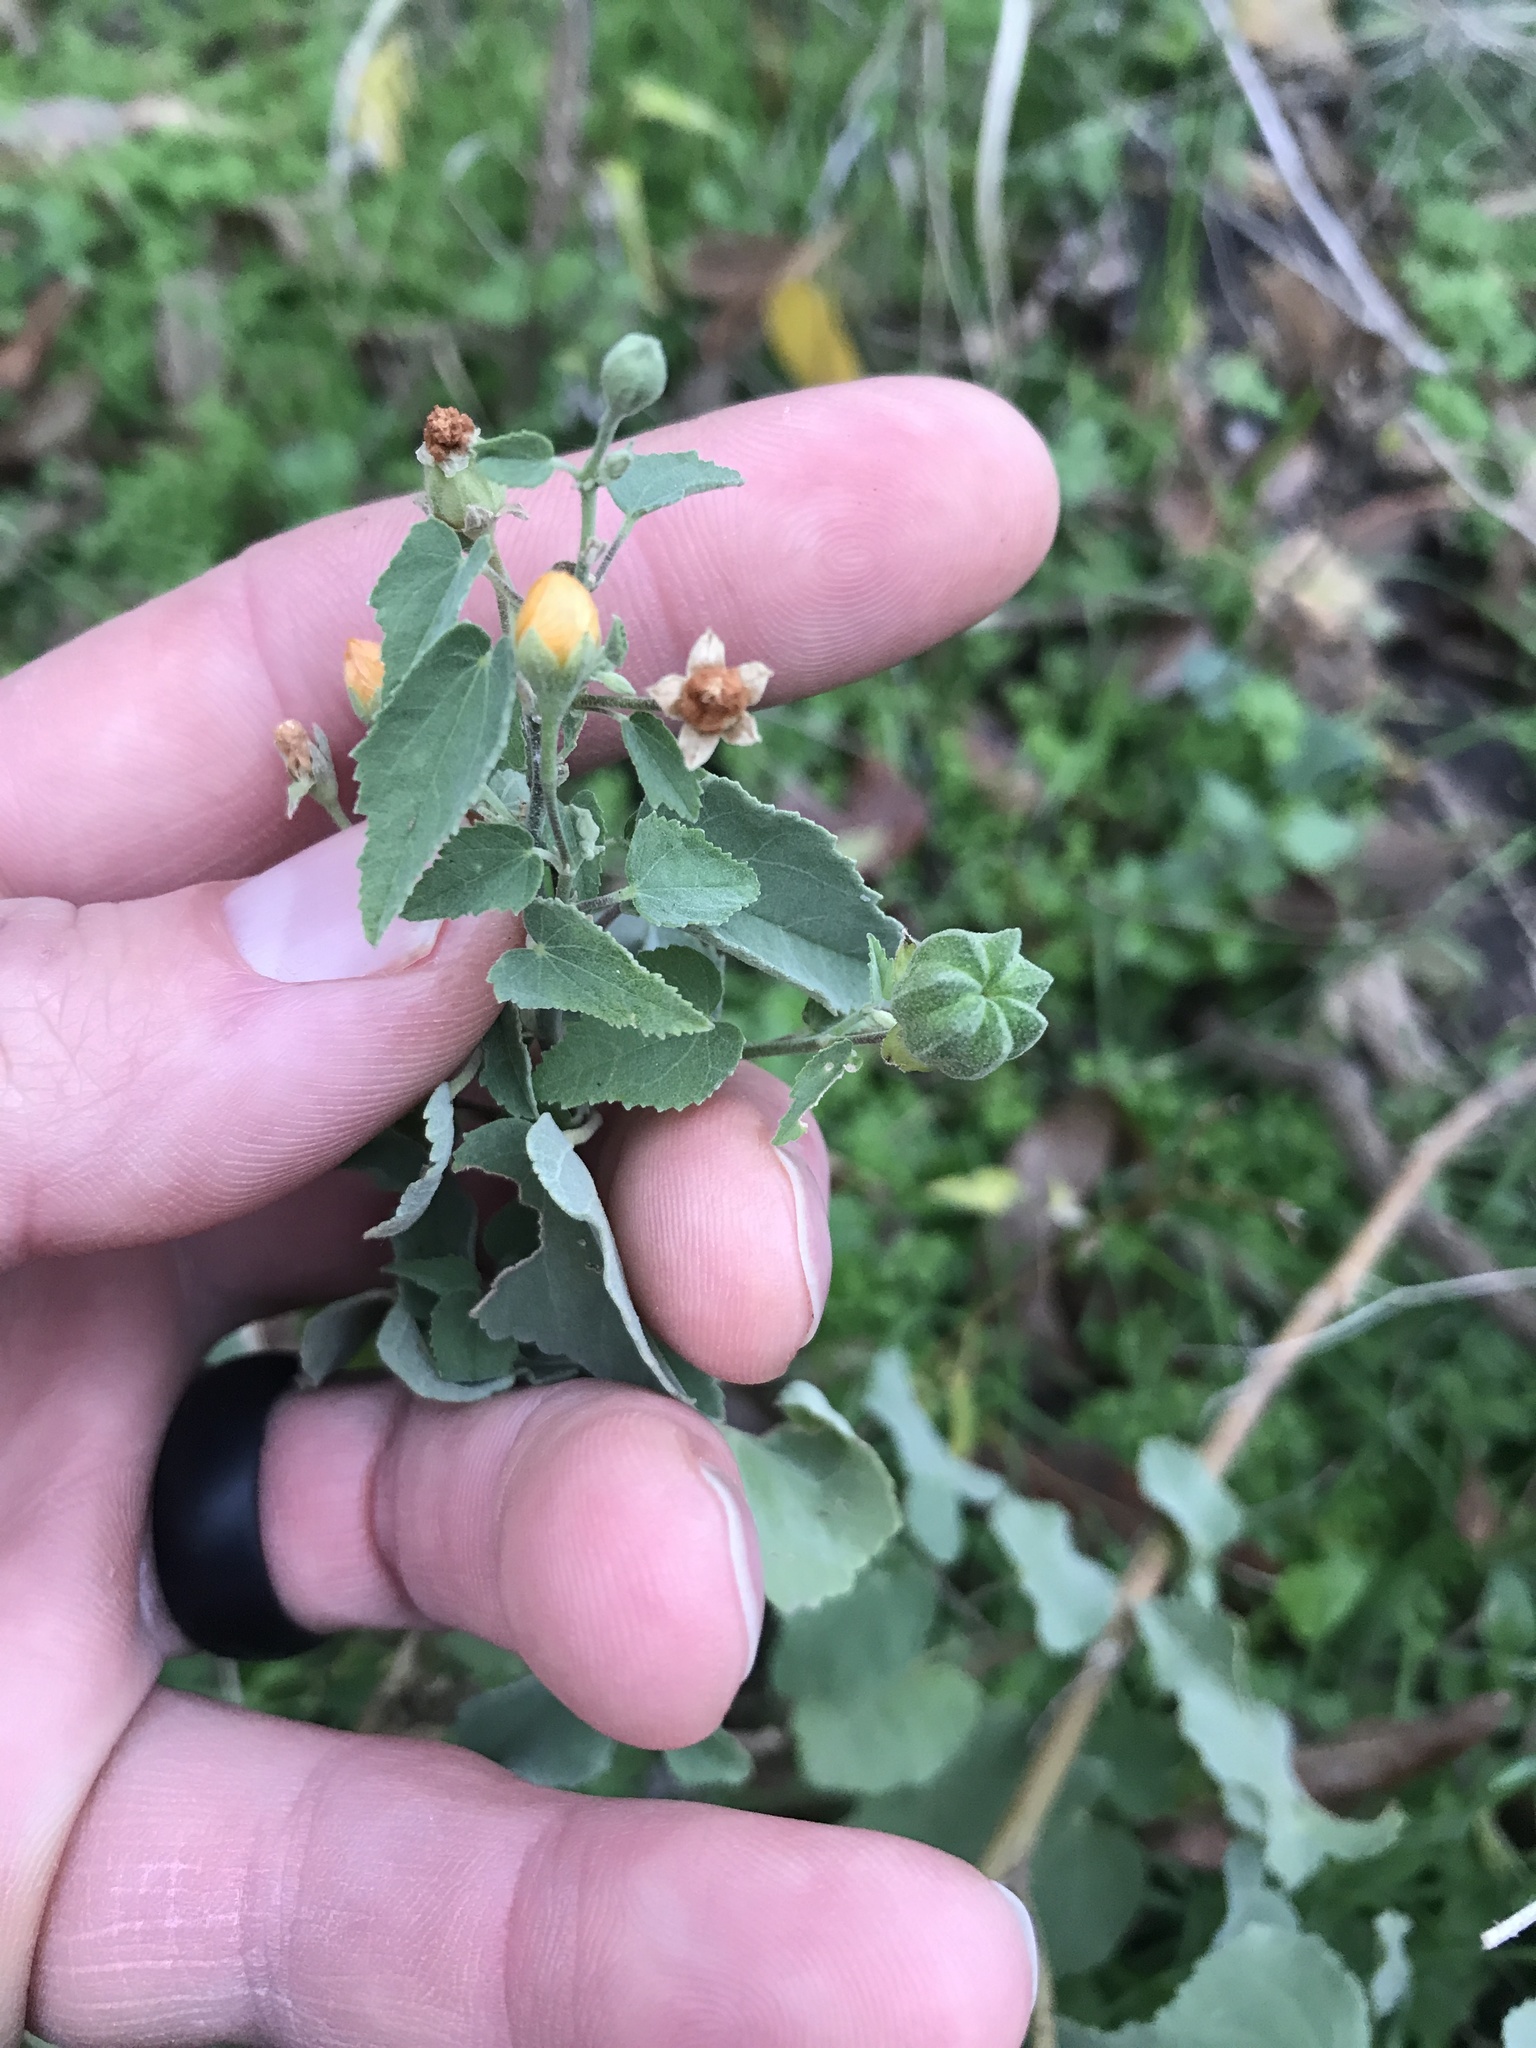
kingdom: Plantae
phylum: Tracheophyta
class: Magnoliopsida
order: Malvales
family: Malvaceae
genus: Abutilon
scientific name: Abutilon fruticosum
